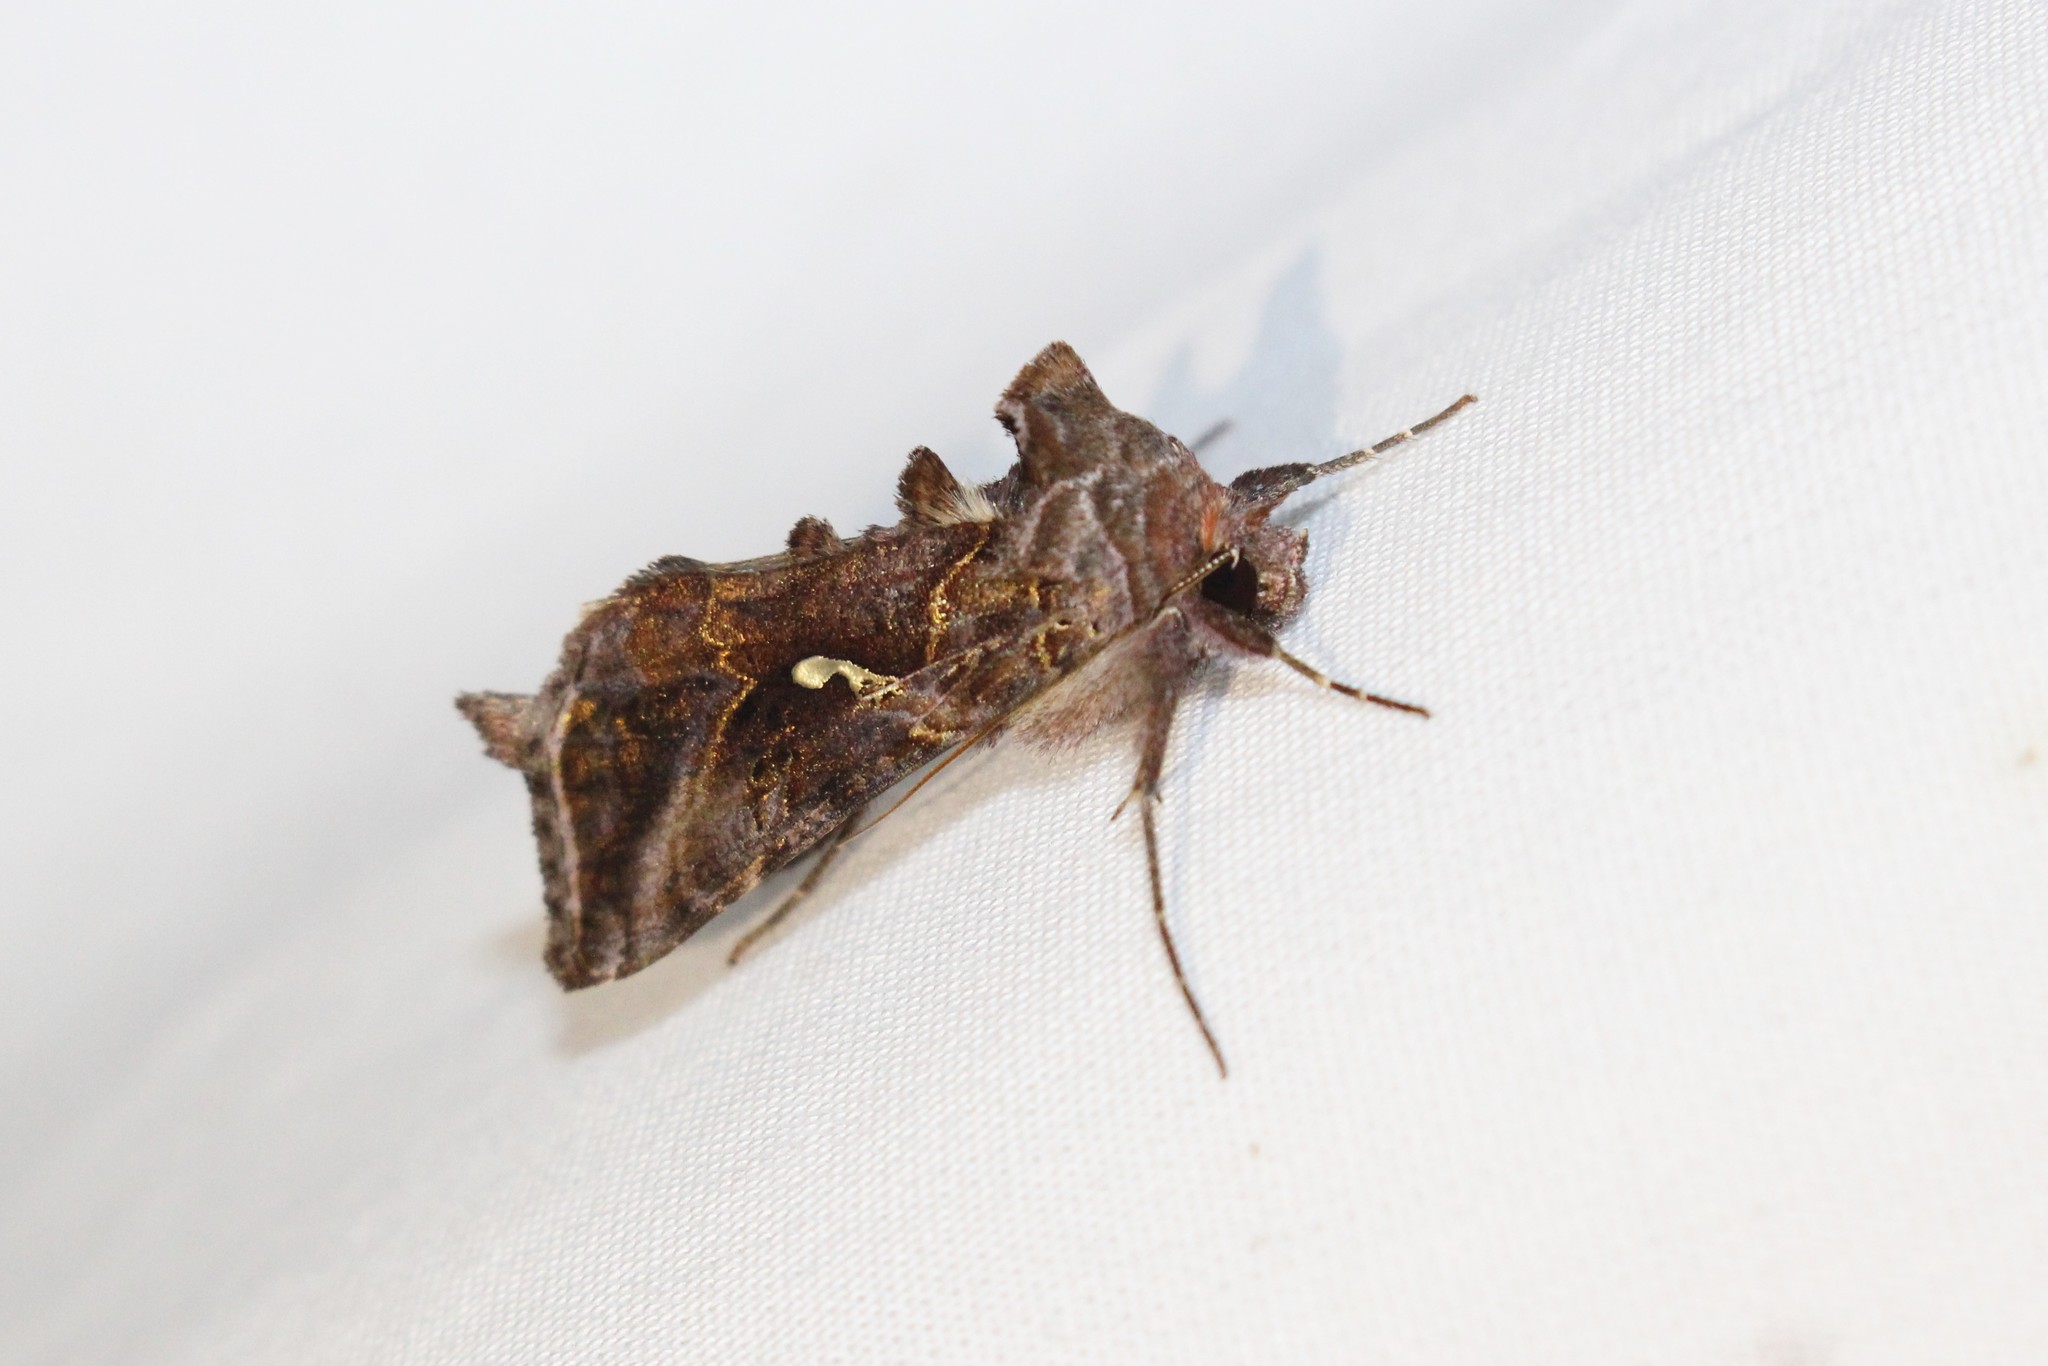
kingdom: Animalia
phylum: Arthropoda
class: Insecta
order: Lepidoptera
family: Noctuidae
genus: Autographa
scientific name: Autographa precationis
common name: Common looper moth
